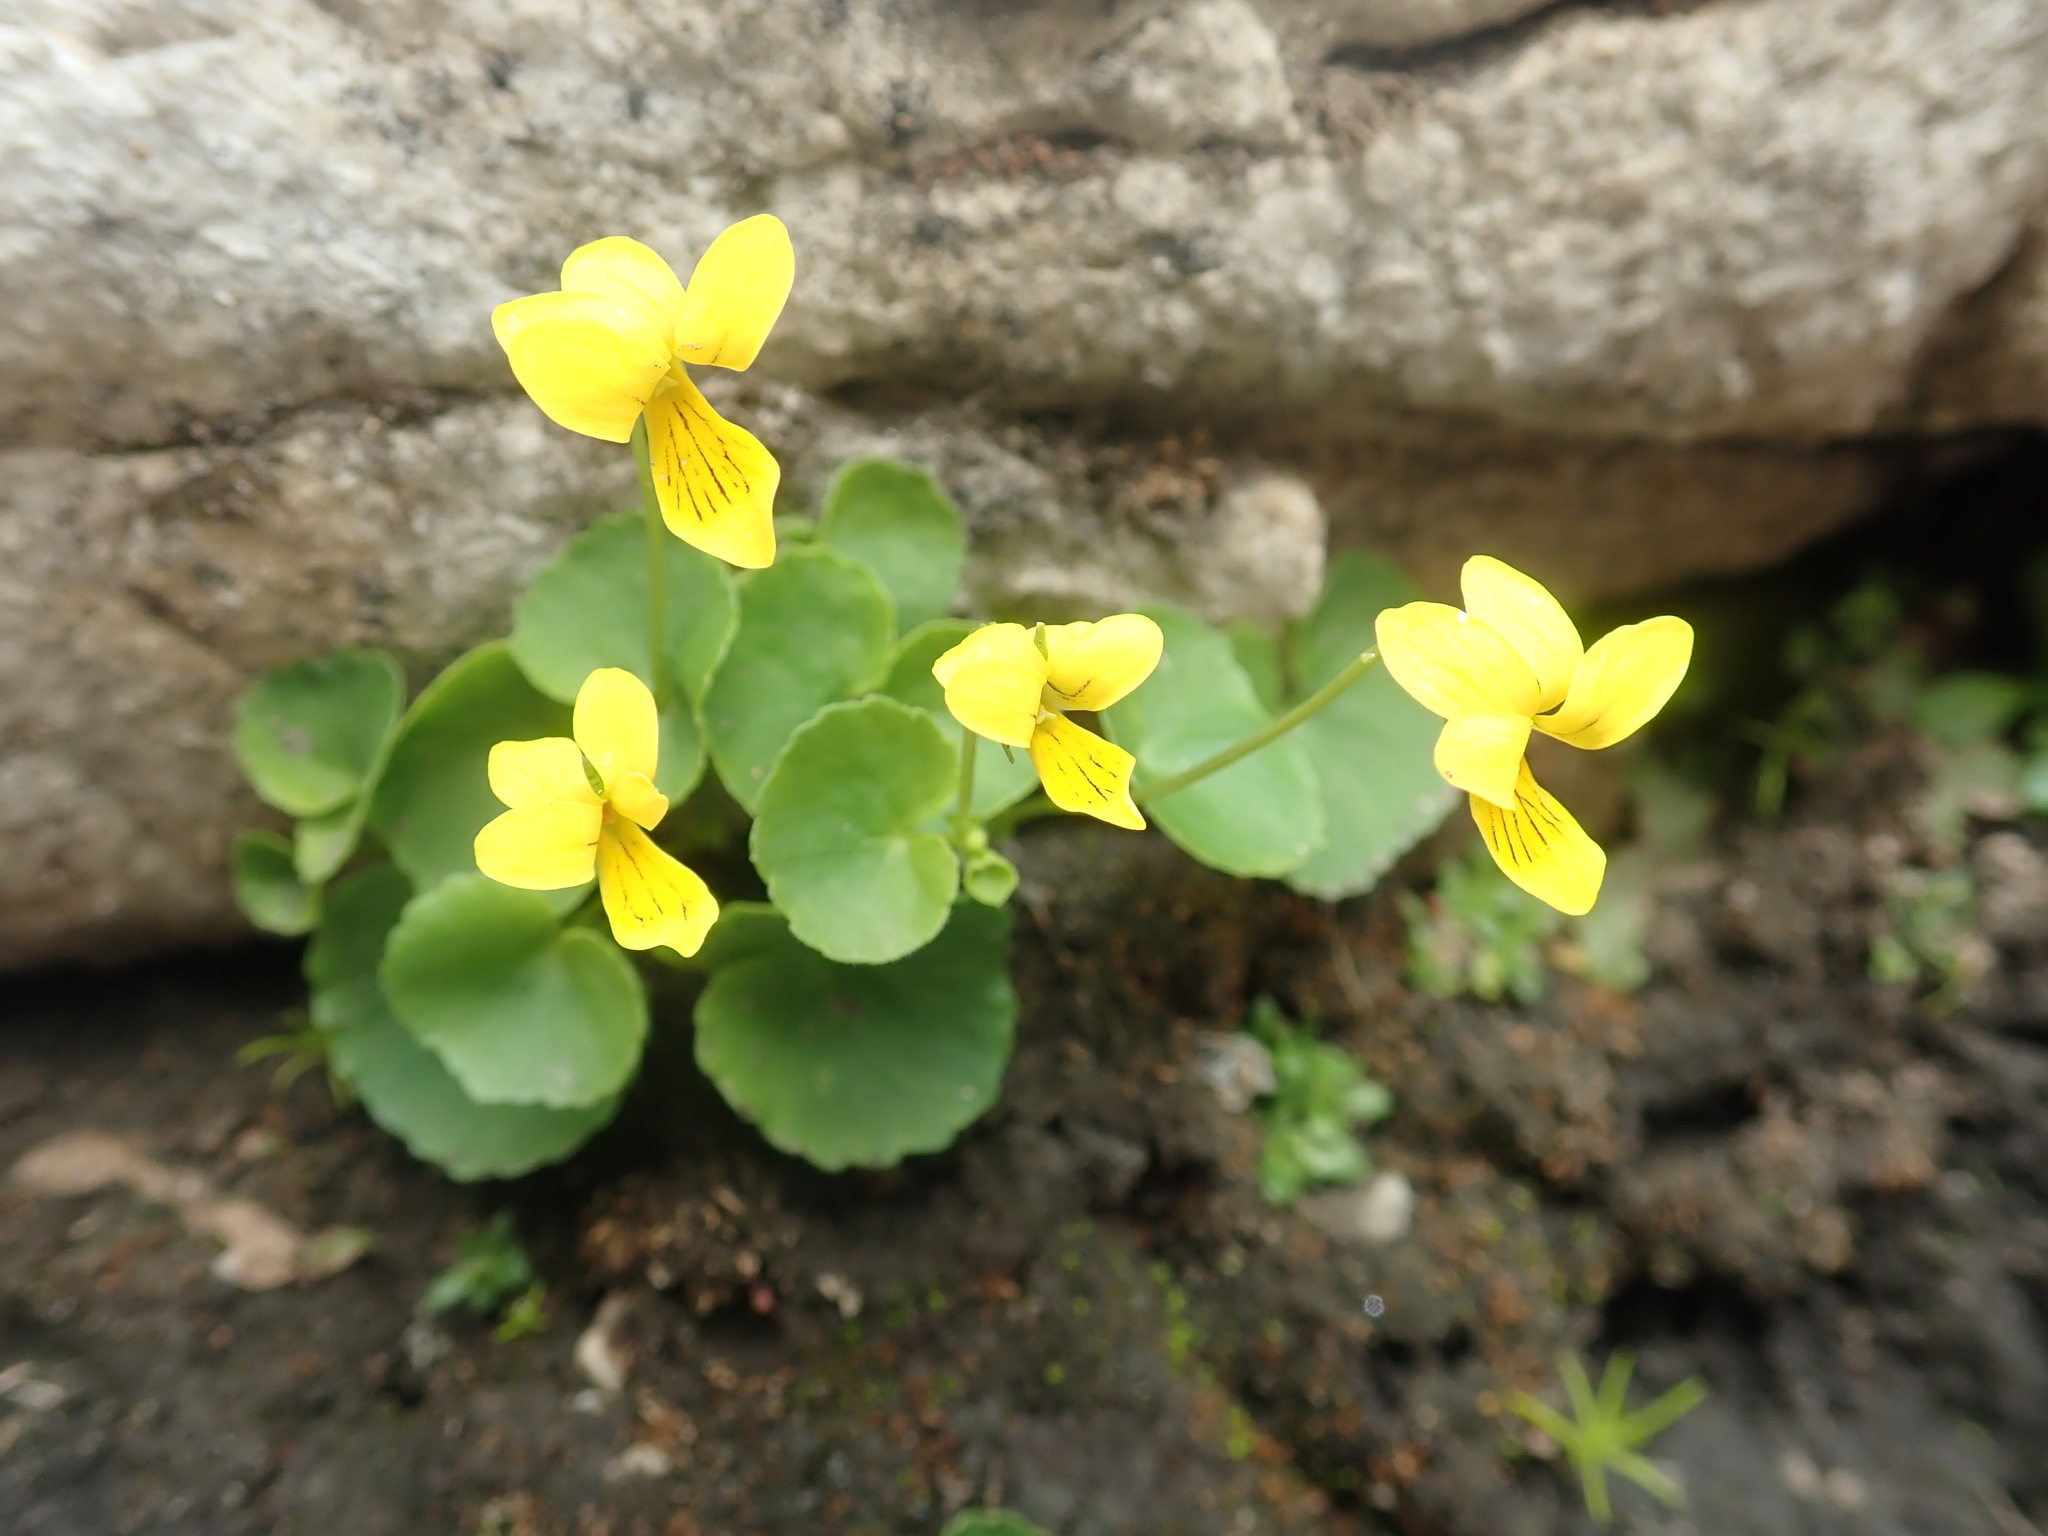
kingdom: Plantae
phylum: Tracheophyta
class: Magnoliopsida
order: Malpighiales
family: Violaceae
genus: Viola
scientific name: Viola biflora
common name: Alpine yellow violet
